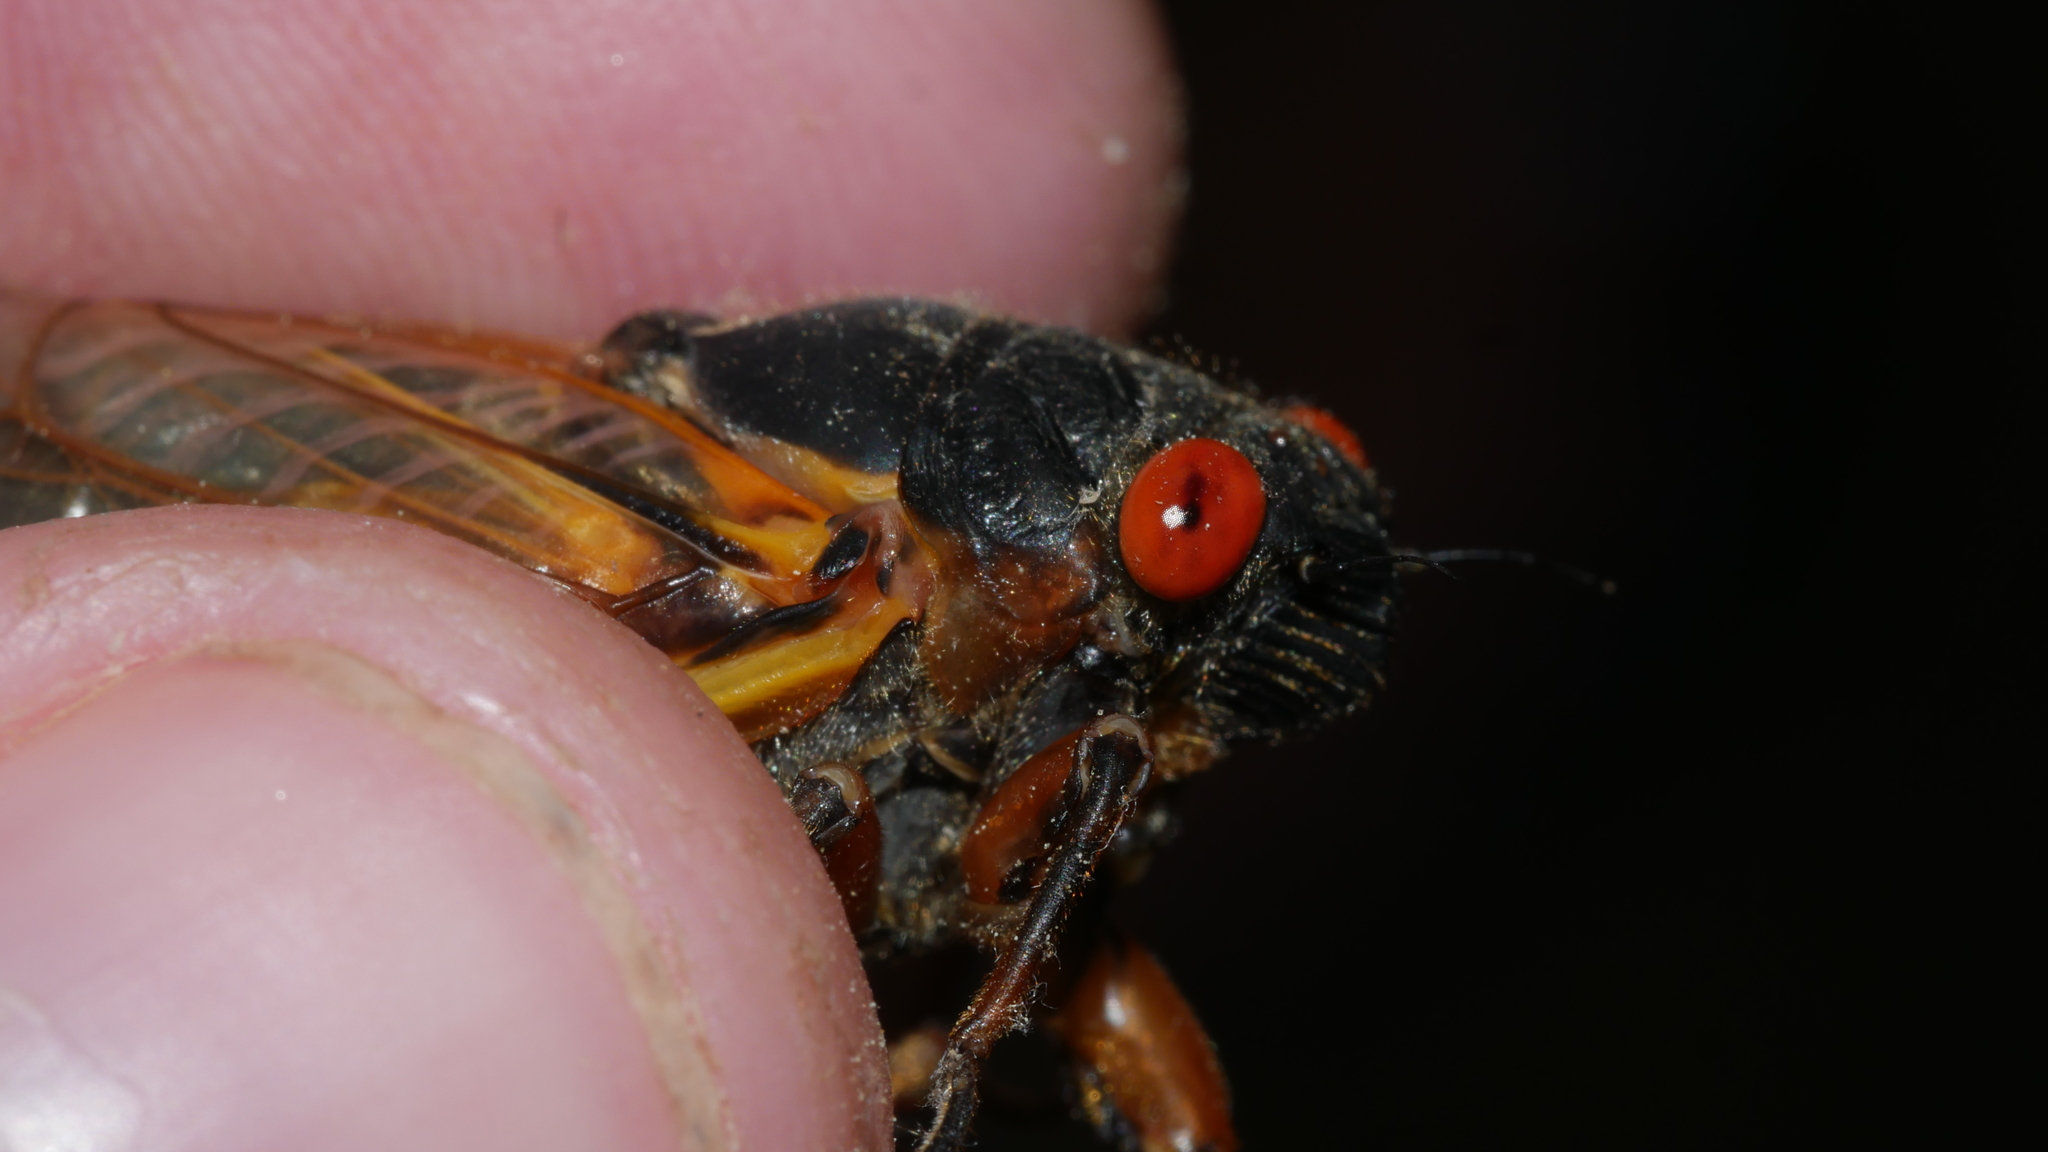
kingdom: Animalia
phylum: Arthropoda
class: Insecta
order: Hemiptera
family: Cicadidae
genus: Magicicada
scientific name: Magicicada septendecim
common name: Periodical cicada
